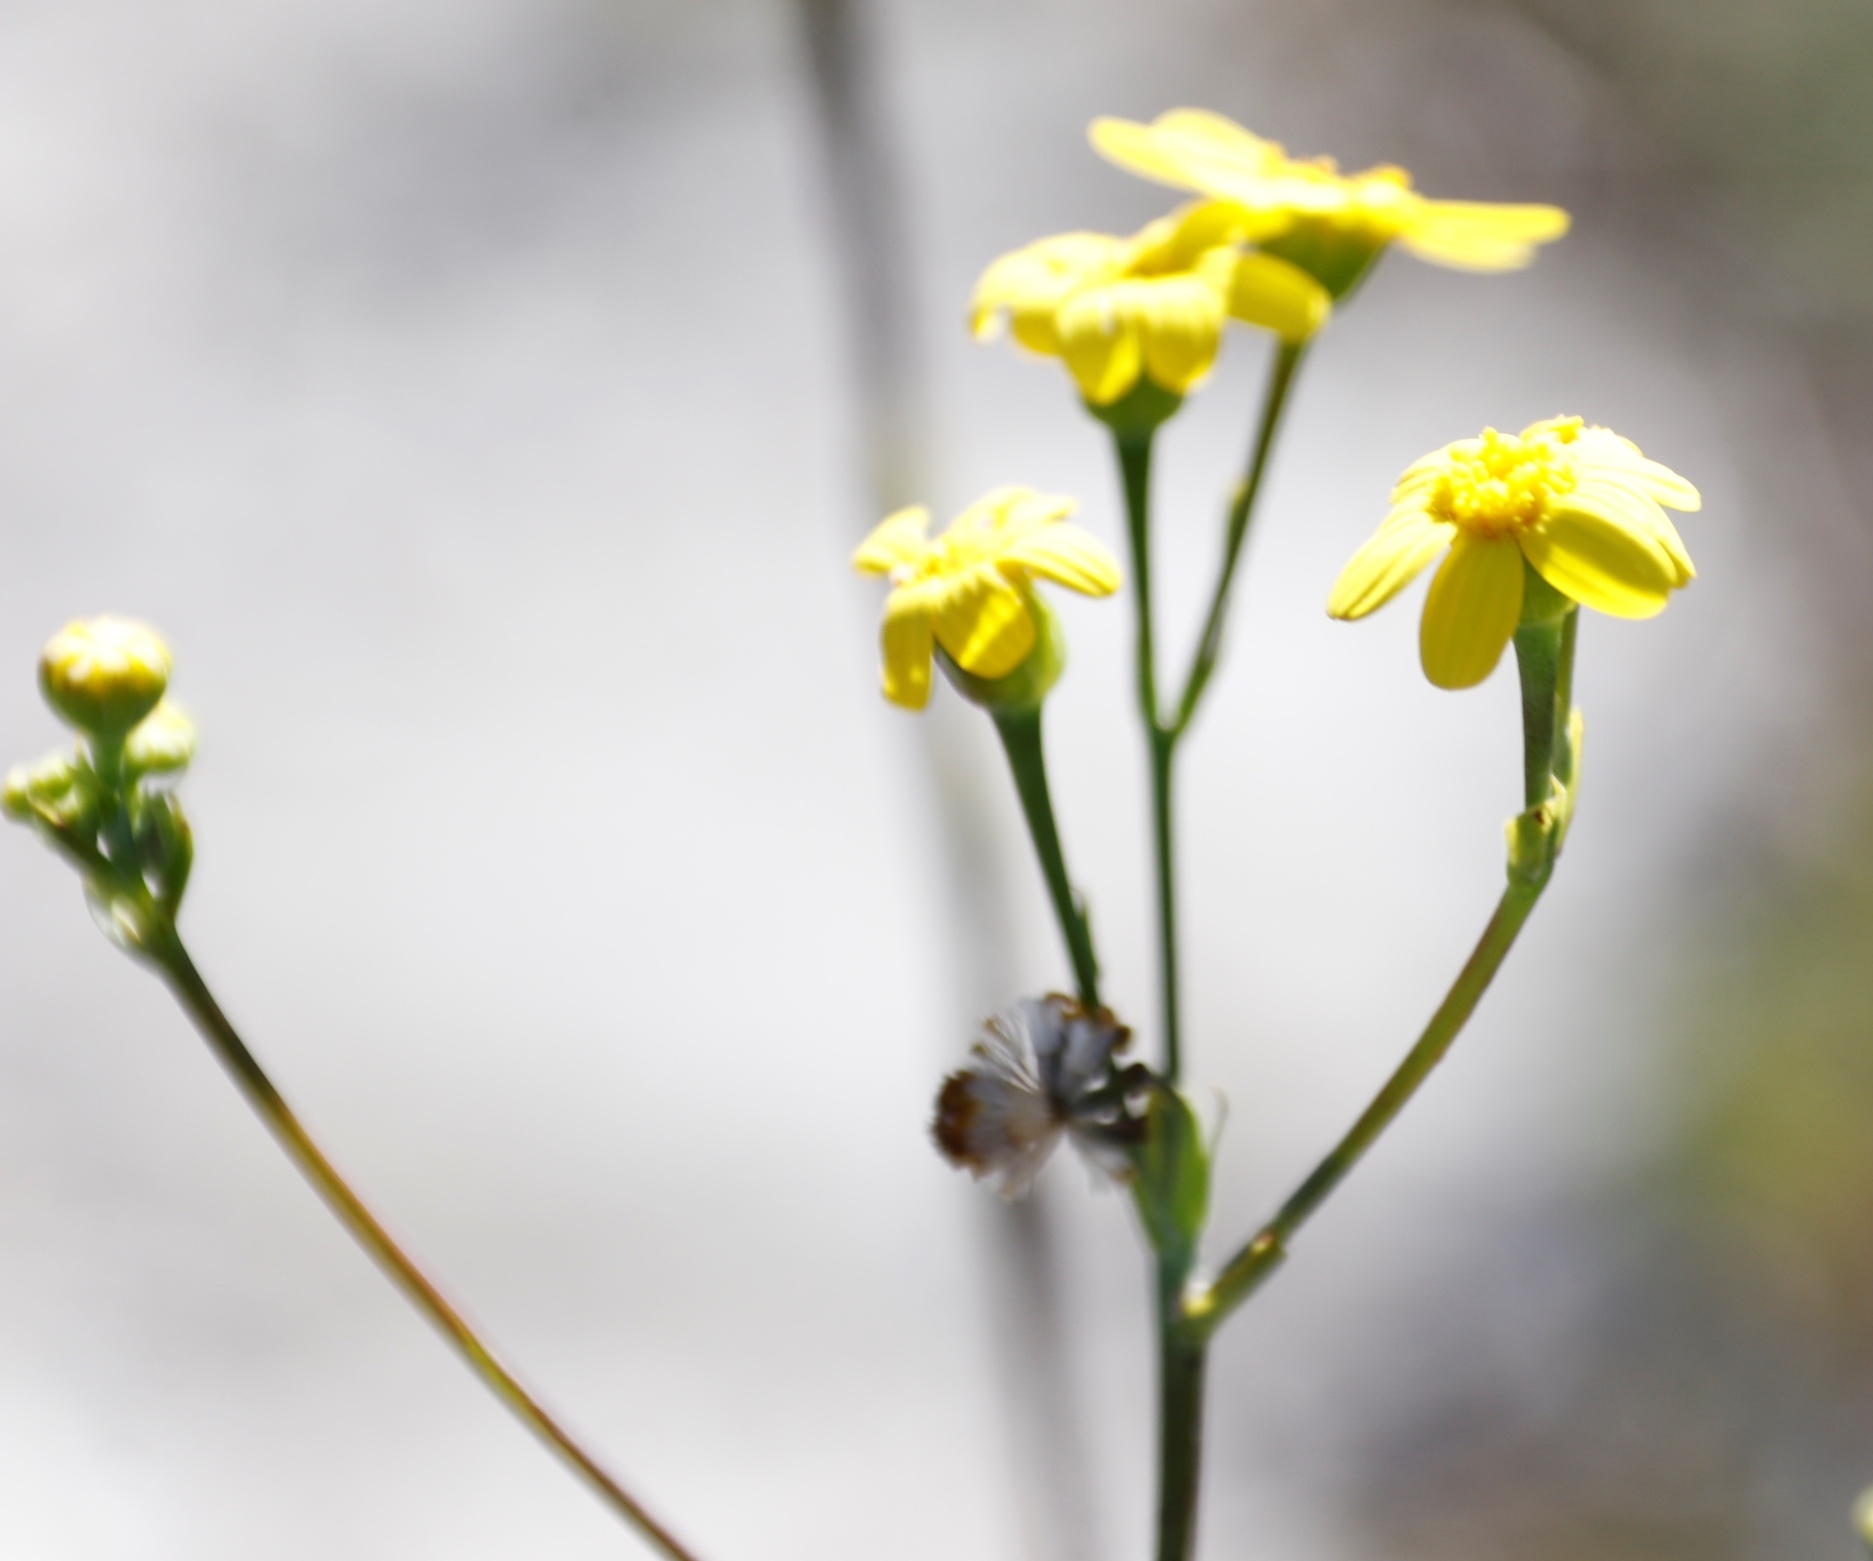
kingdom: Plantae
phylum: Tracheophyta
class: Magnoliopsida
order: Asterales
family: Asteraceae
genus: Othonna
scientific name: Othonna quinquedentata
